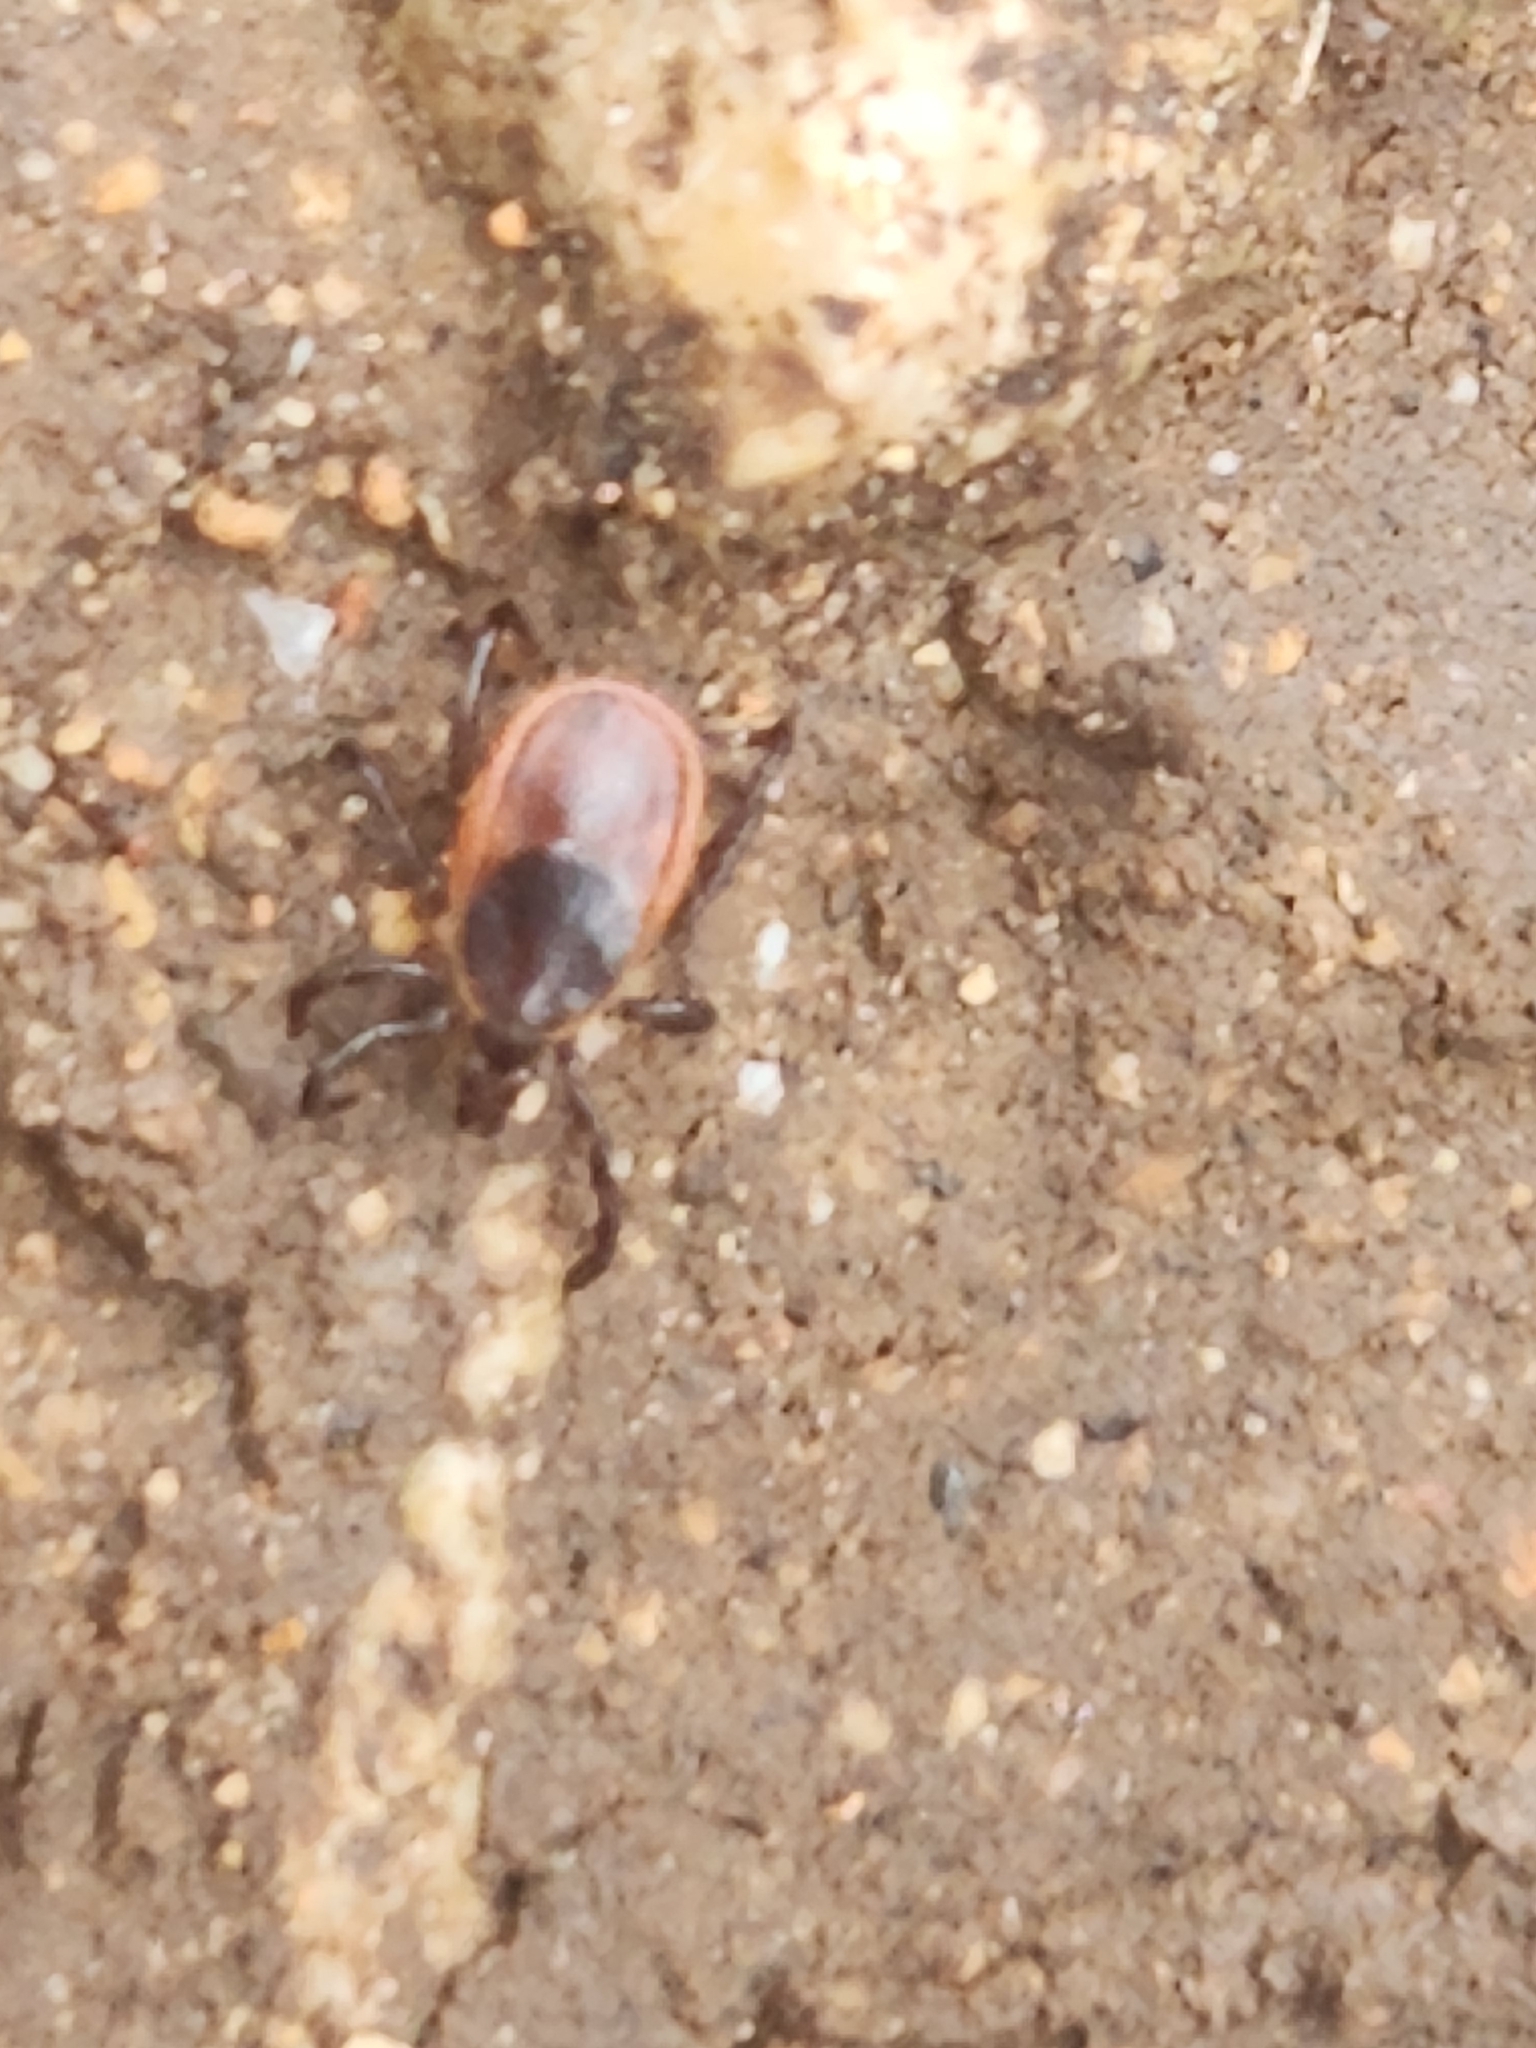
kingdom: Animalia
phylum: Arthropoda
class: Arachnida
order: Ixodida
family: Ixodidae
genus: Ixodes
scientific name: Ixodes scapularis
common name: Black legged tick
